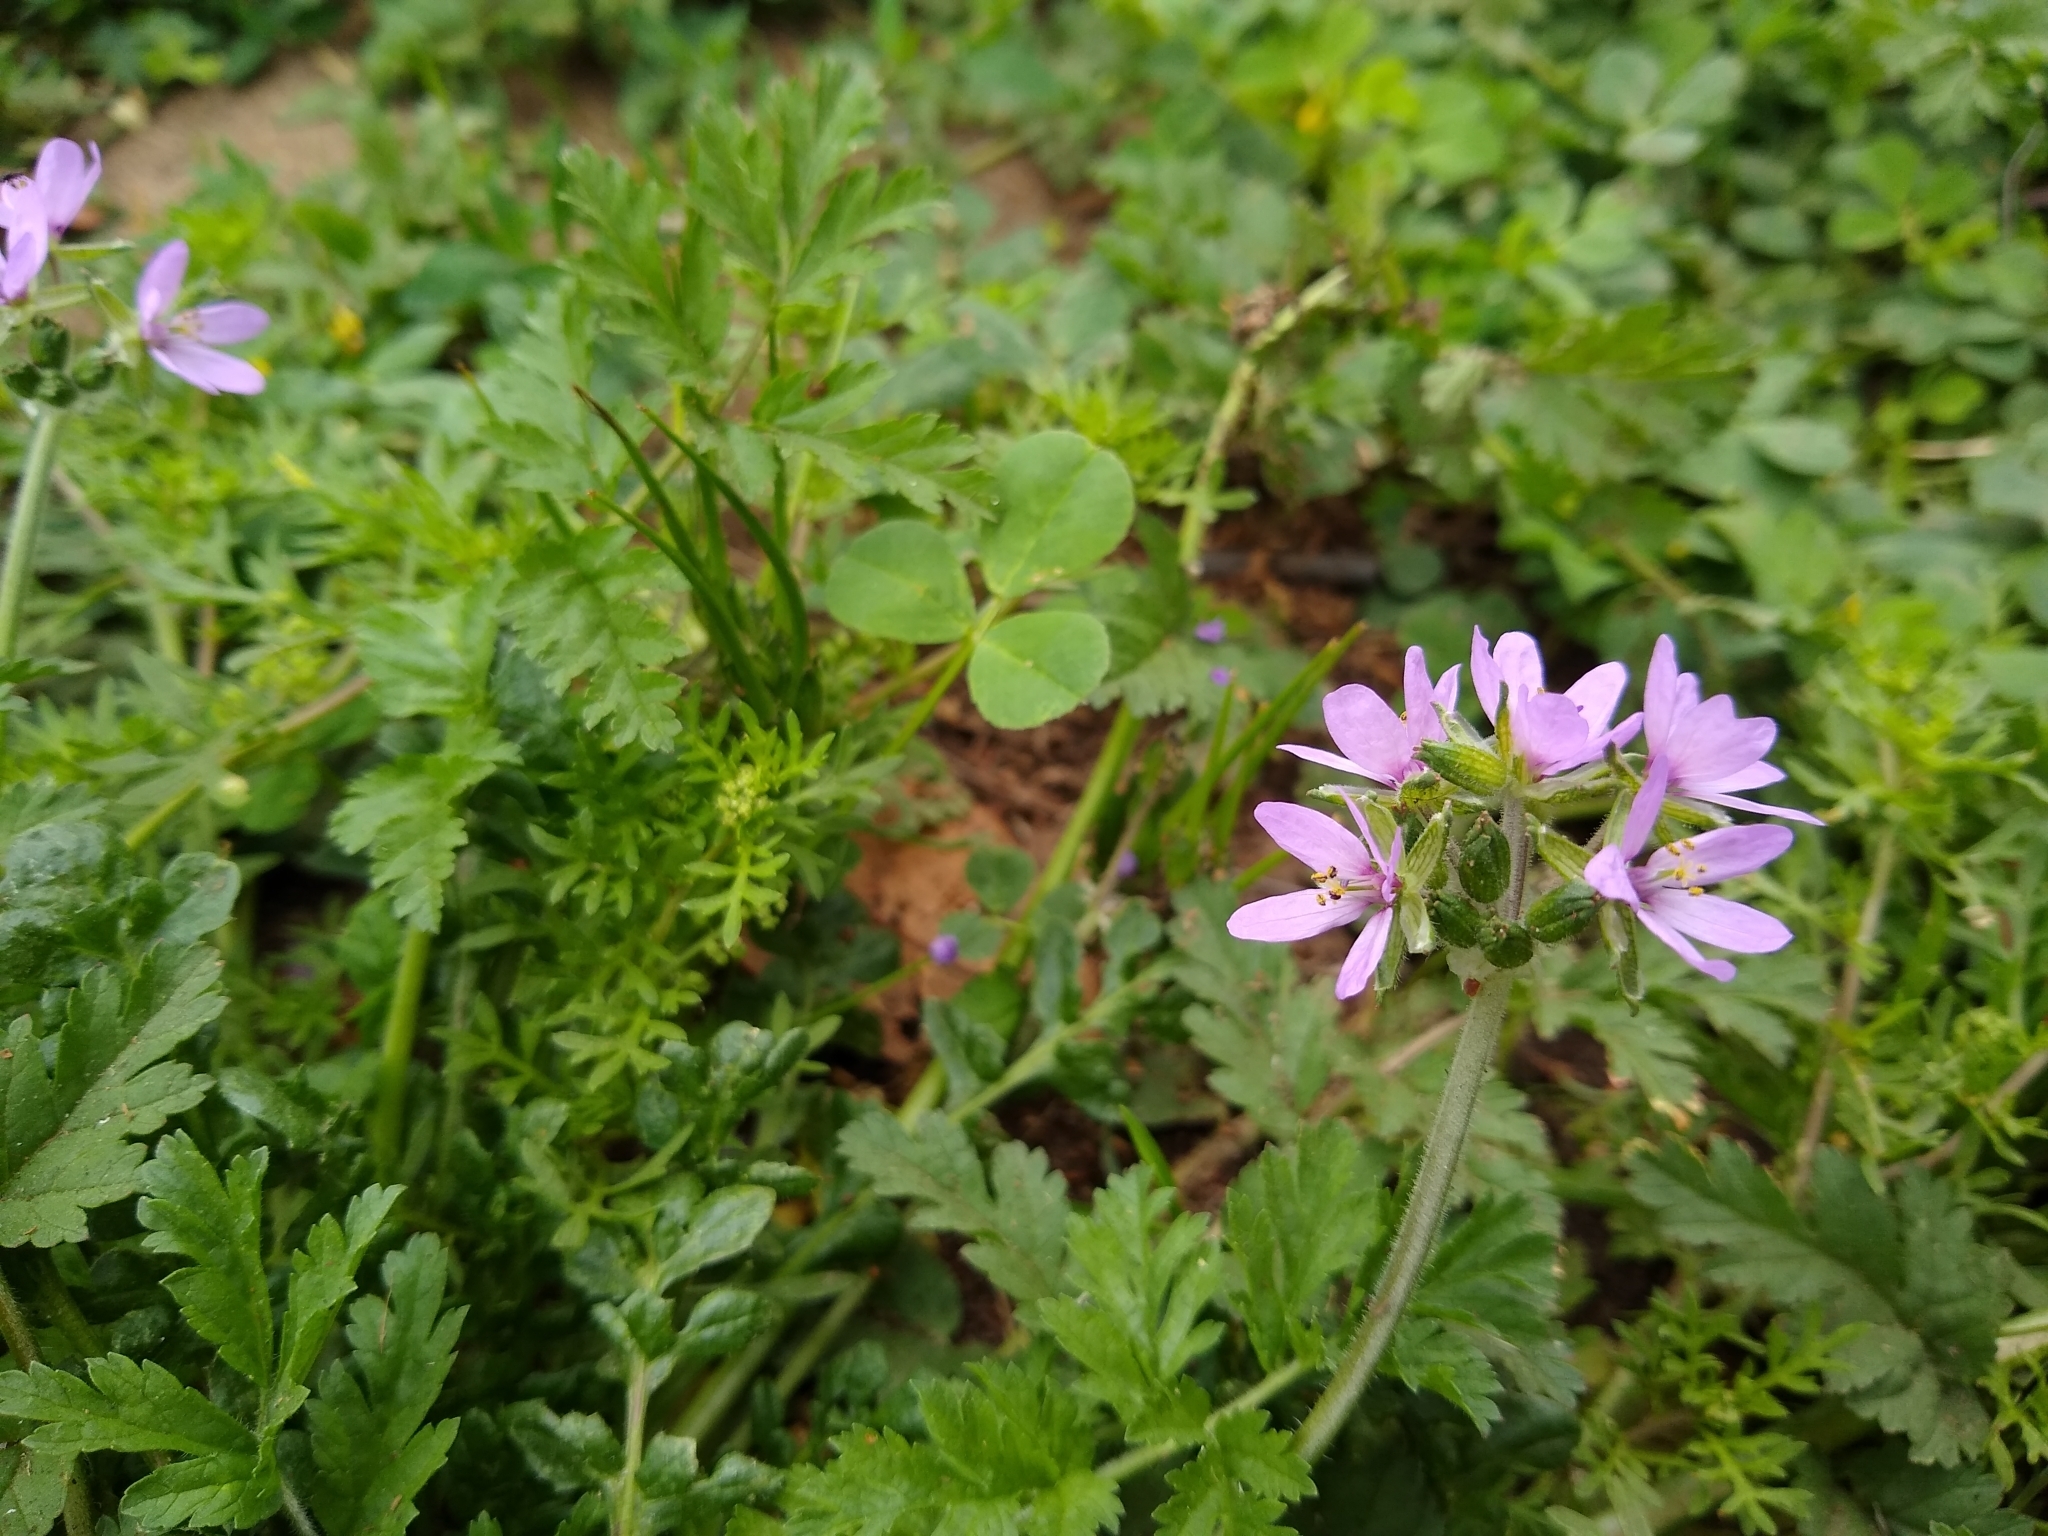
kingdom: Plantae
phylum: Tracheophyta
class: Magnoliopsida
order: Geraniales
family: Geraniaceae
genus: Erodium
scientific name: Erodium moschatum
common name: Musk stork's-bill
